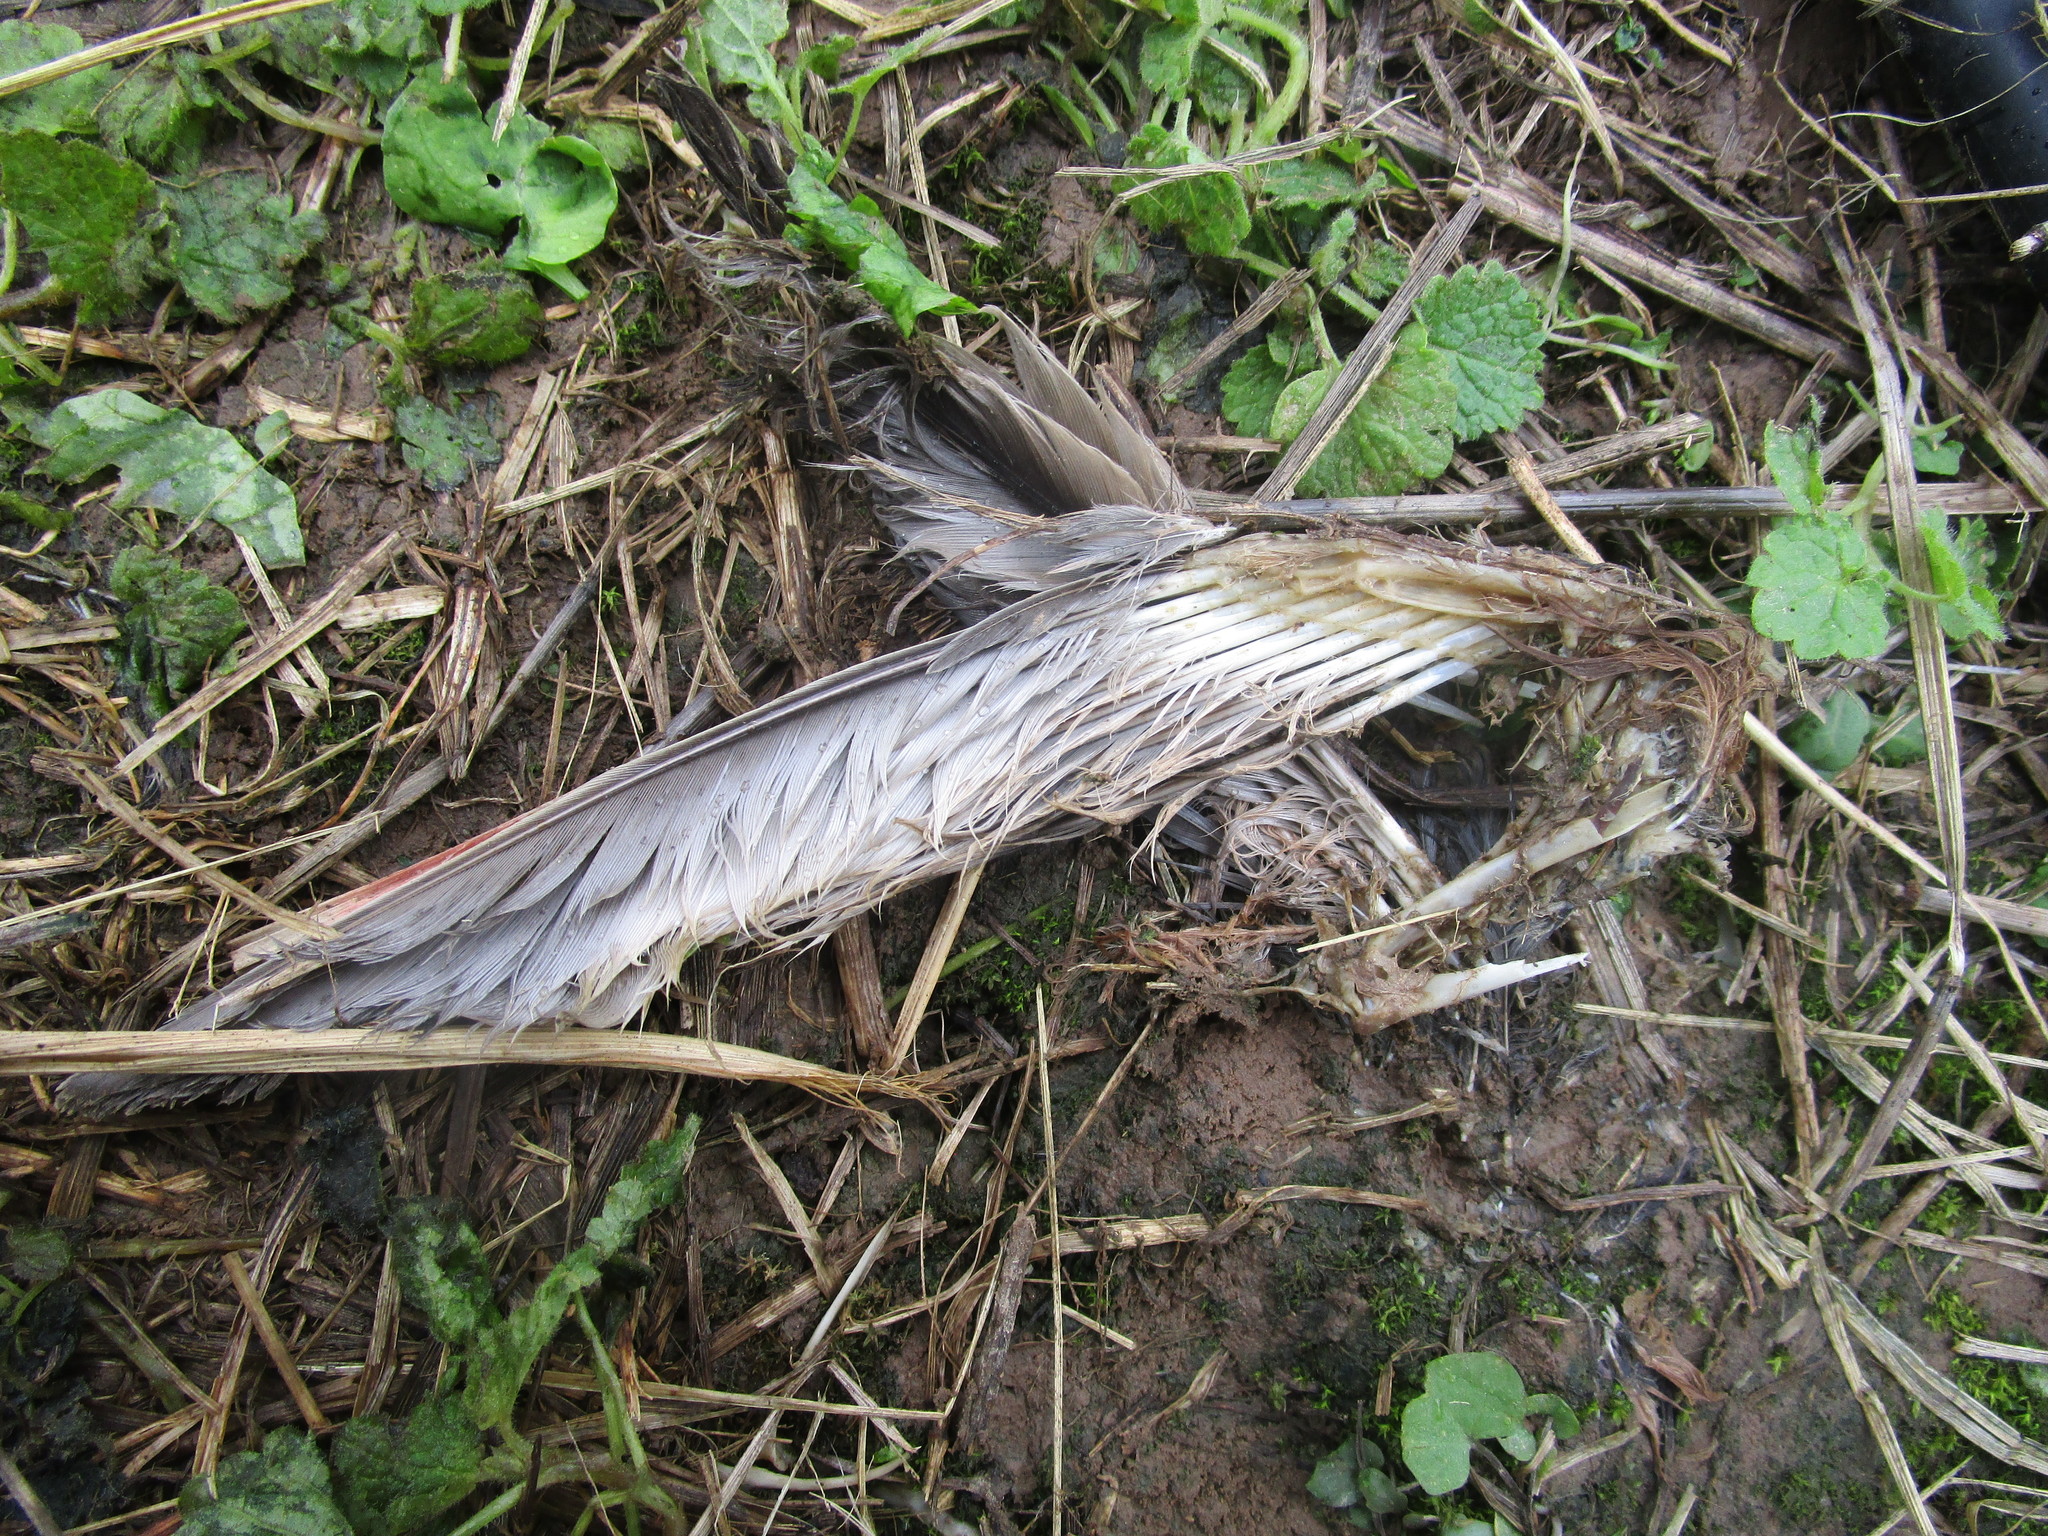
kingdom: Animalia
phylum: Chordata
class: Aves
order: Passeriformes
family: Turdidae
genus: Turdus
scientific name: Turdus migratorius
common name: American robin
